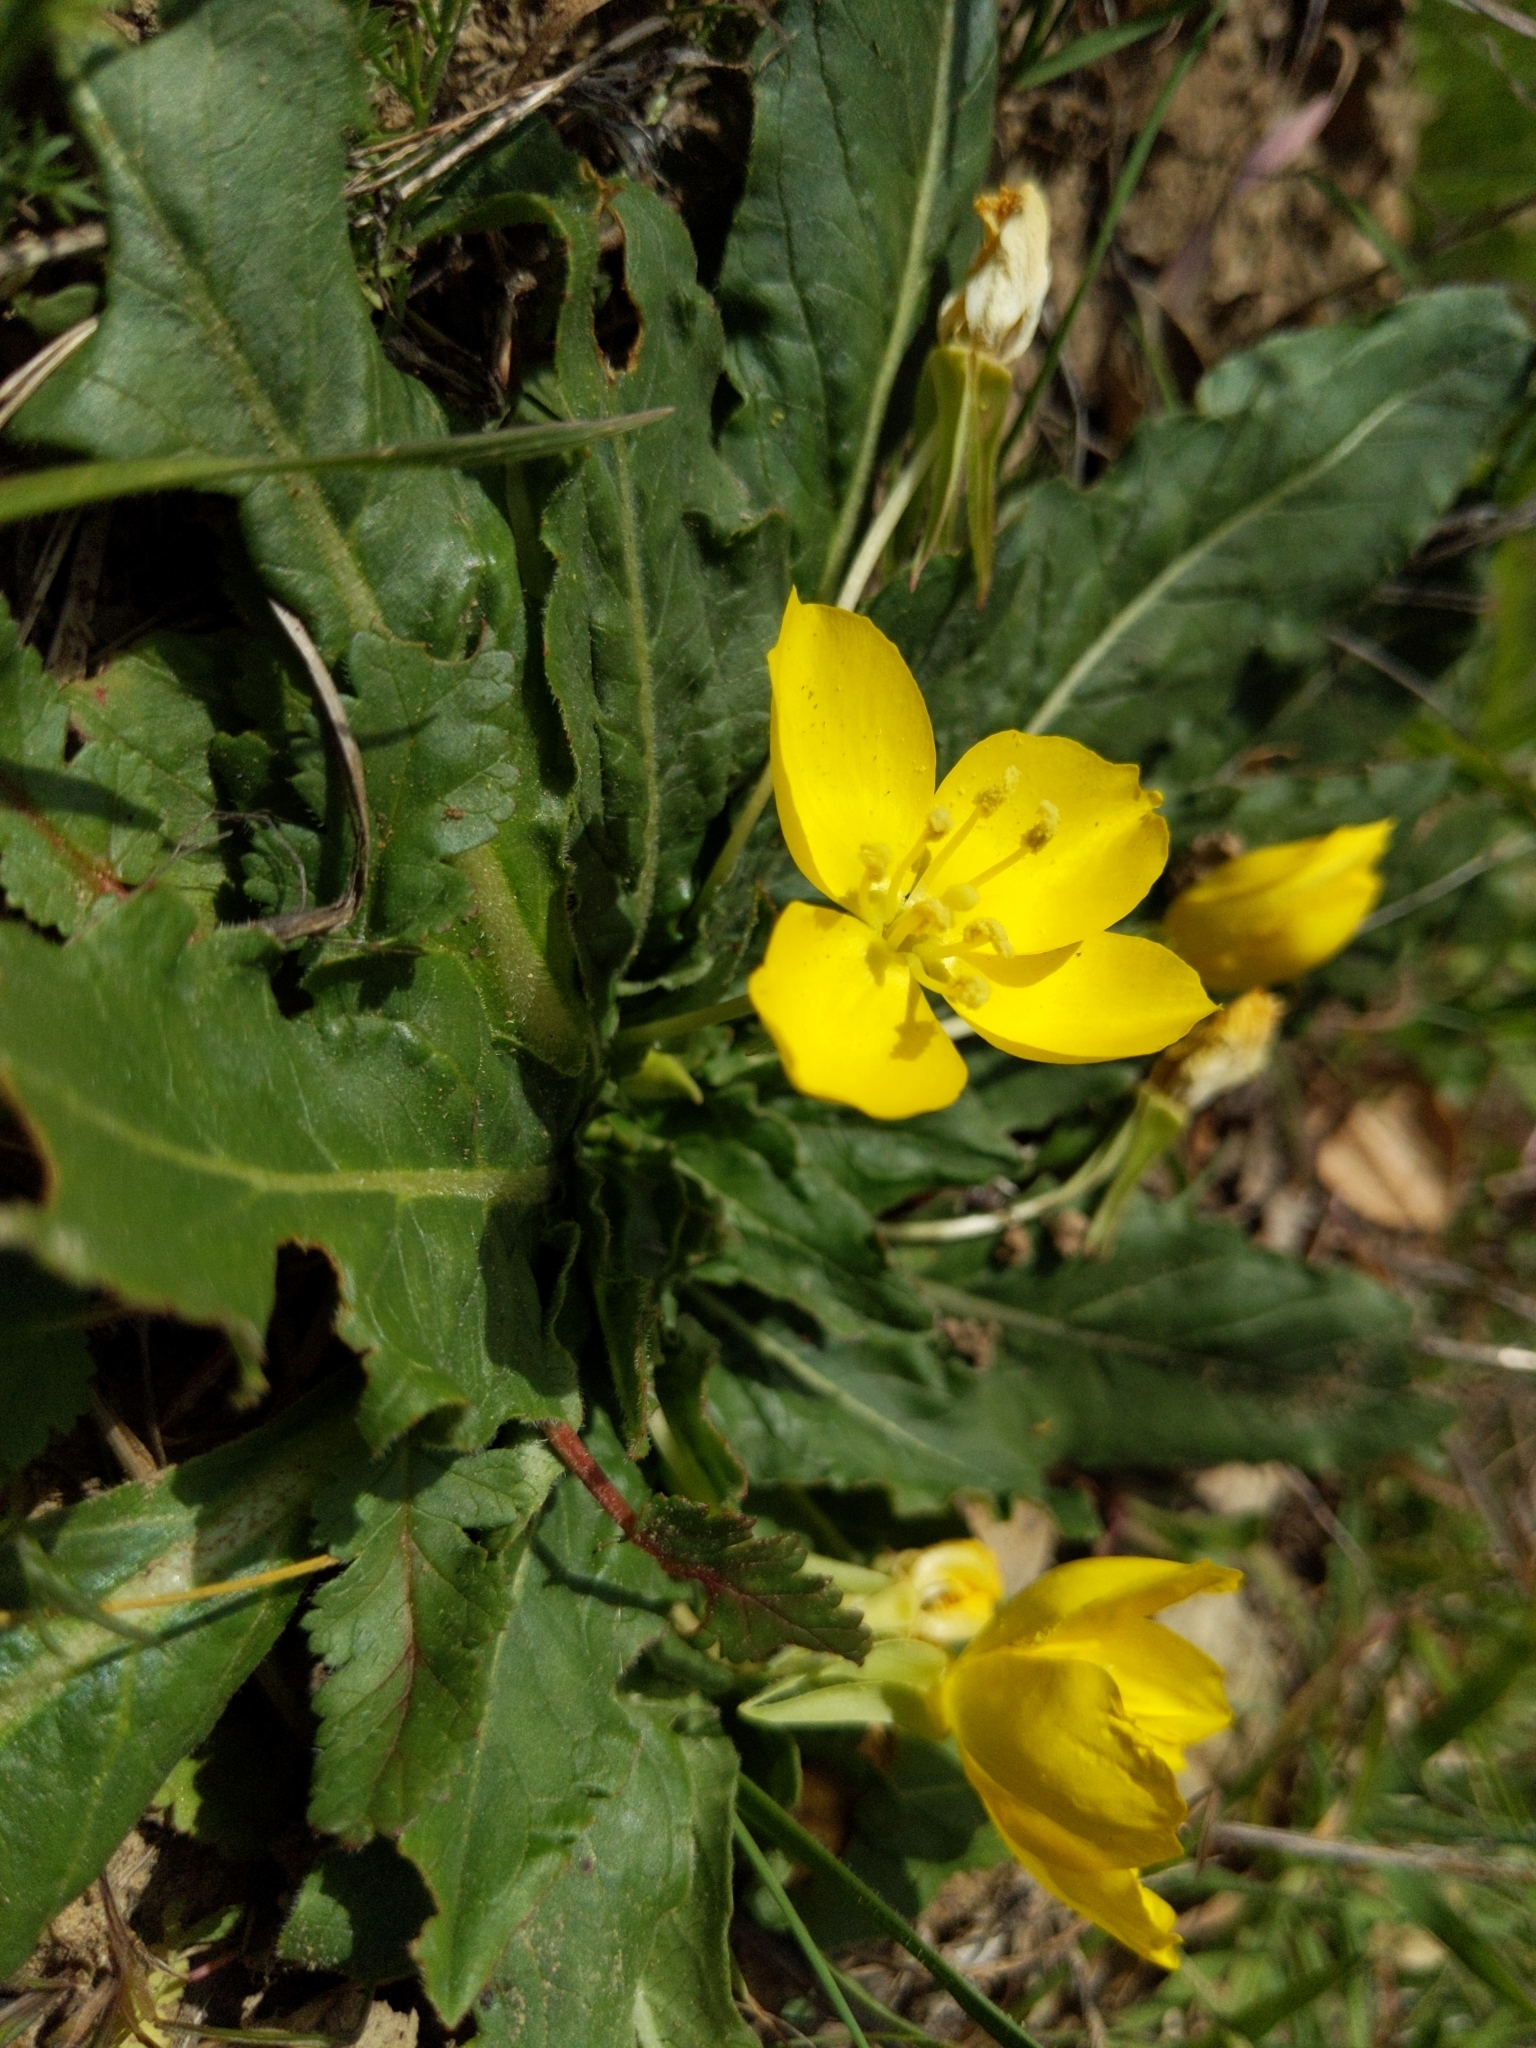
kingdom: Plantae
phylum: Tracheophyta
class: Magnoliopsida
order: Myrtales
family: Onagraceae
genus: Taraxia
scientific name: Taraxia ovata
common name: Goldeneggs
